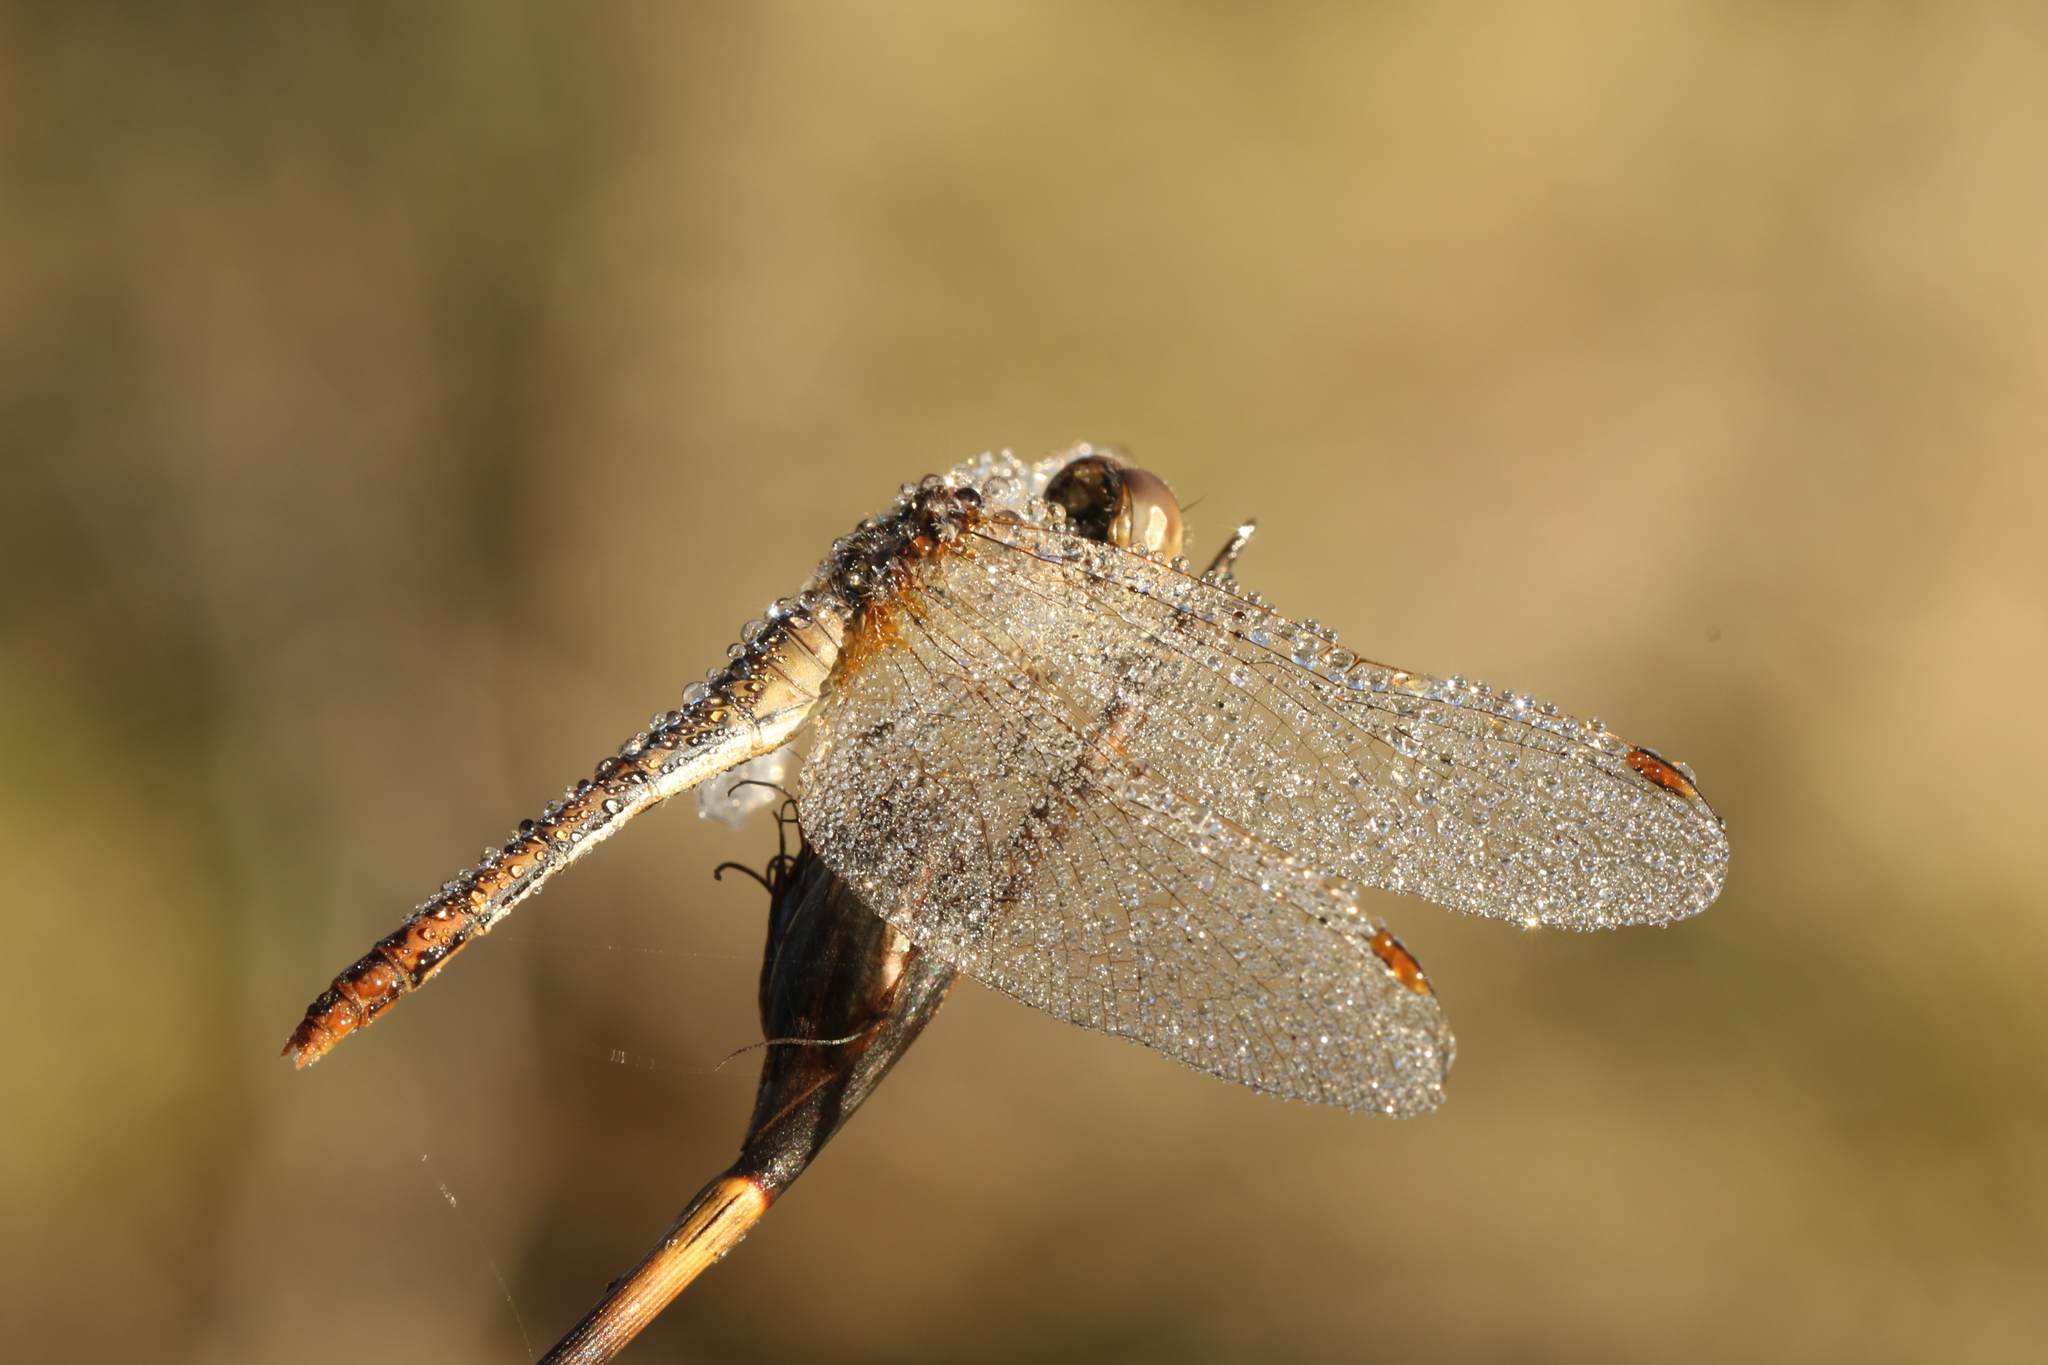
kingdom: Animalia
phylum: Arthropoda
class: Insecta
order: Odonata
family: Libellulidae
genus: Diplacodes
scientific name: Diplacodes bipunctata
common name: Red percher dragonfly
